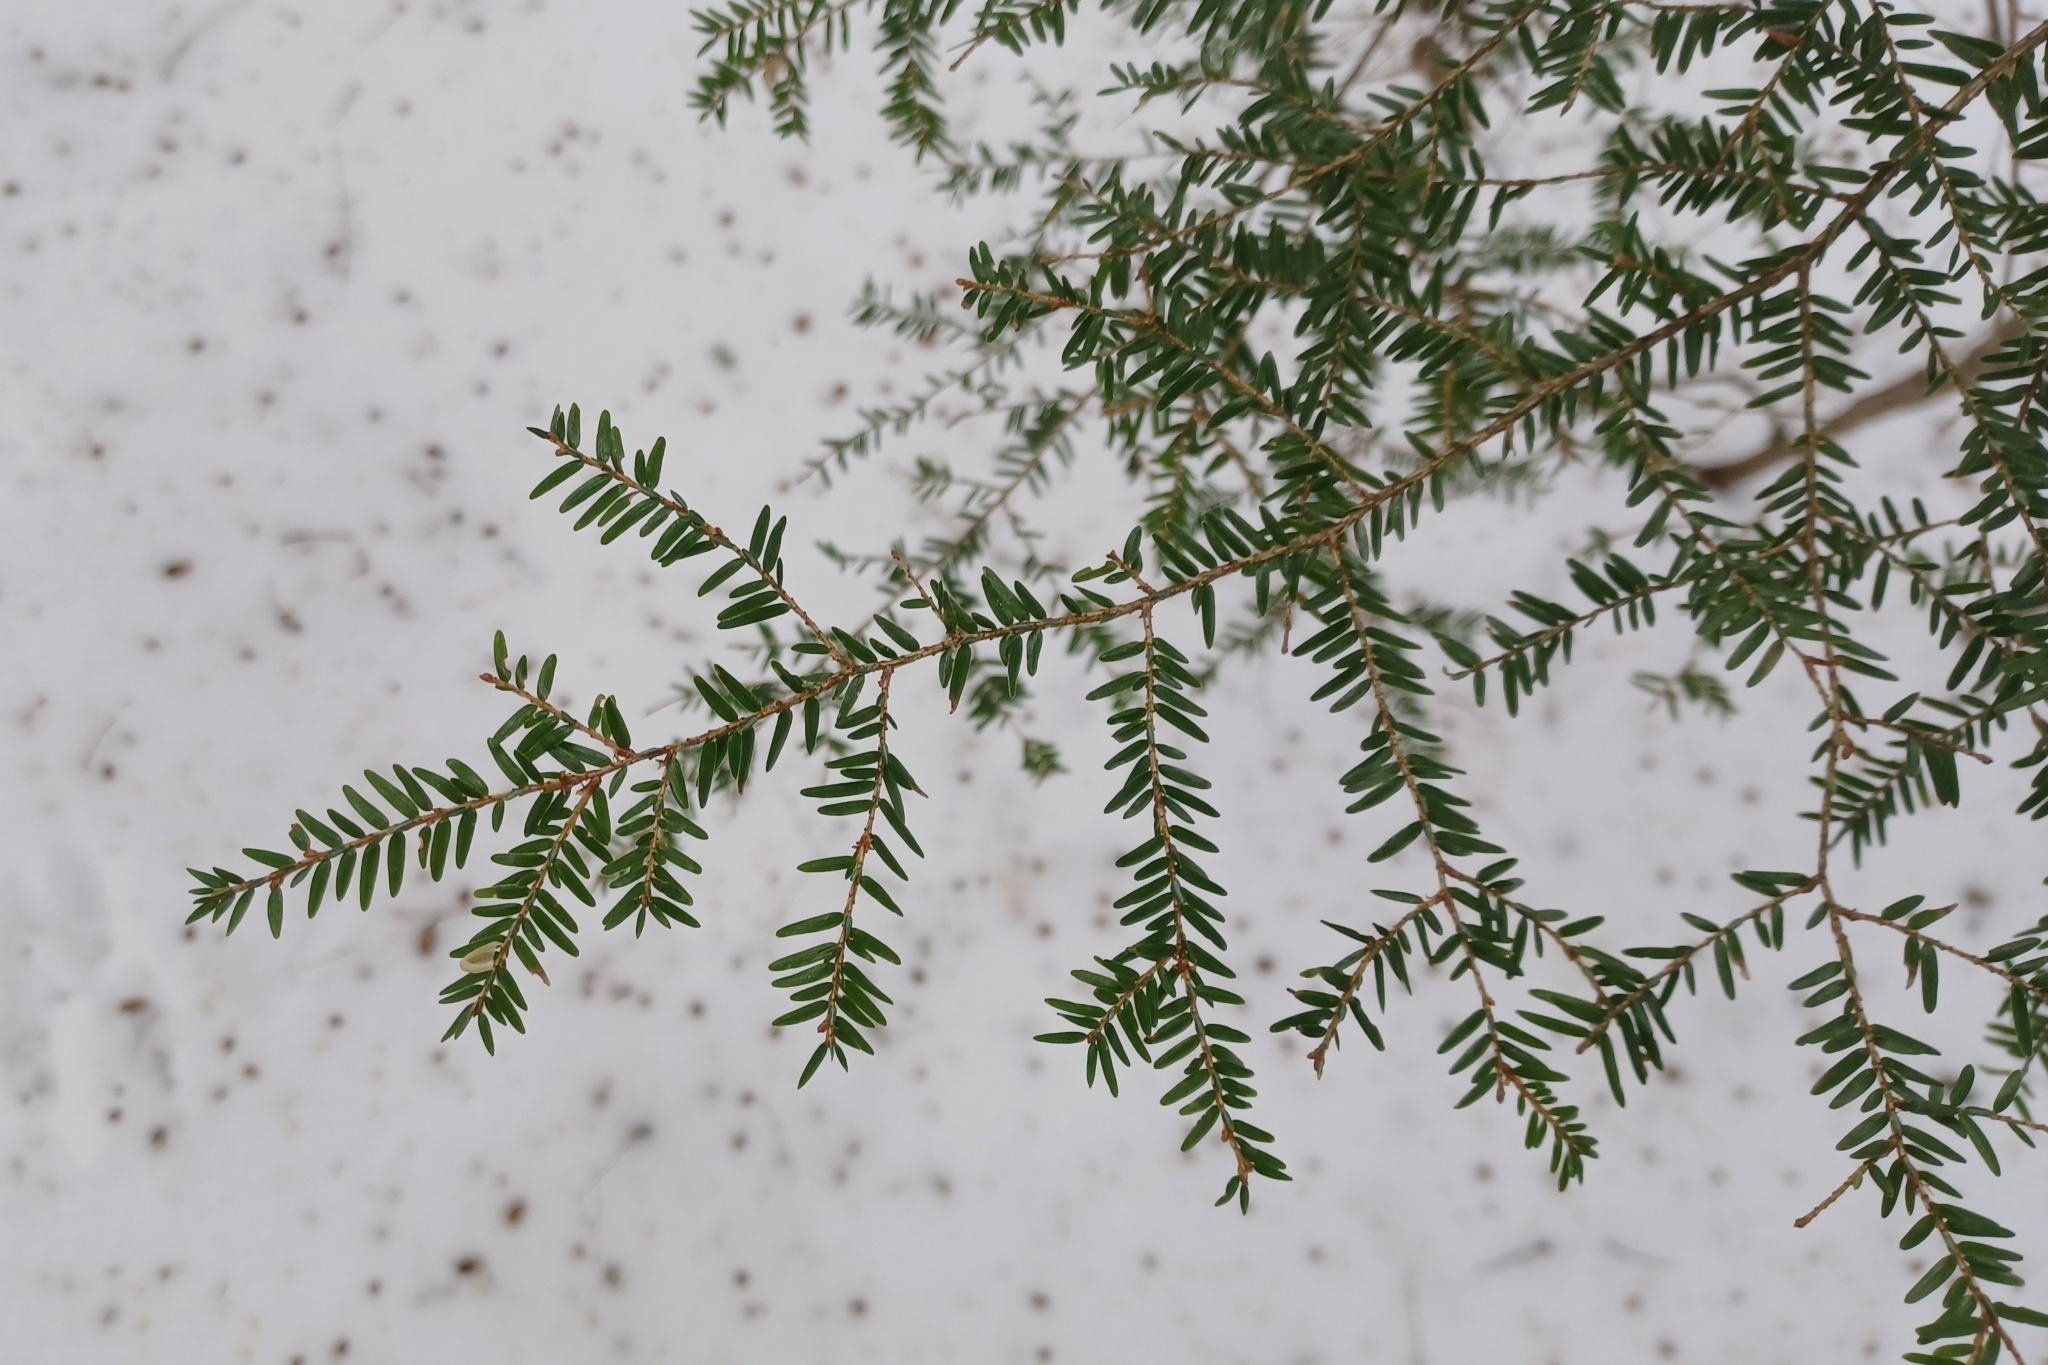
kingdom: Plantae
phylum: Tracheophyta
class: Pinopsida
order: Pinales
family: Pinaceae
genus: Tsuga
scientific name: Tsuga canadensis
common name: Eastern hemlock
